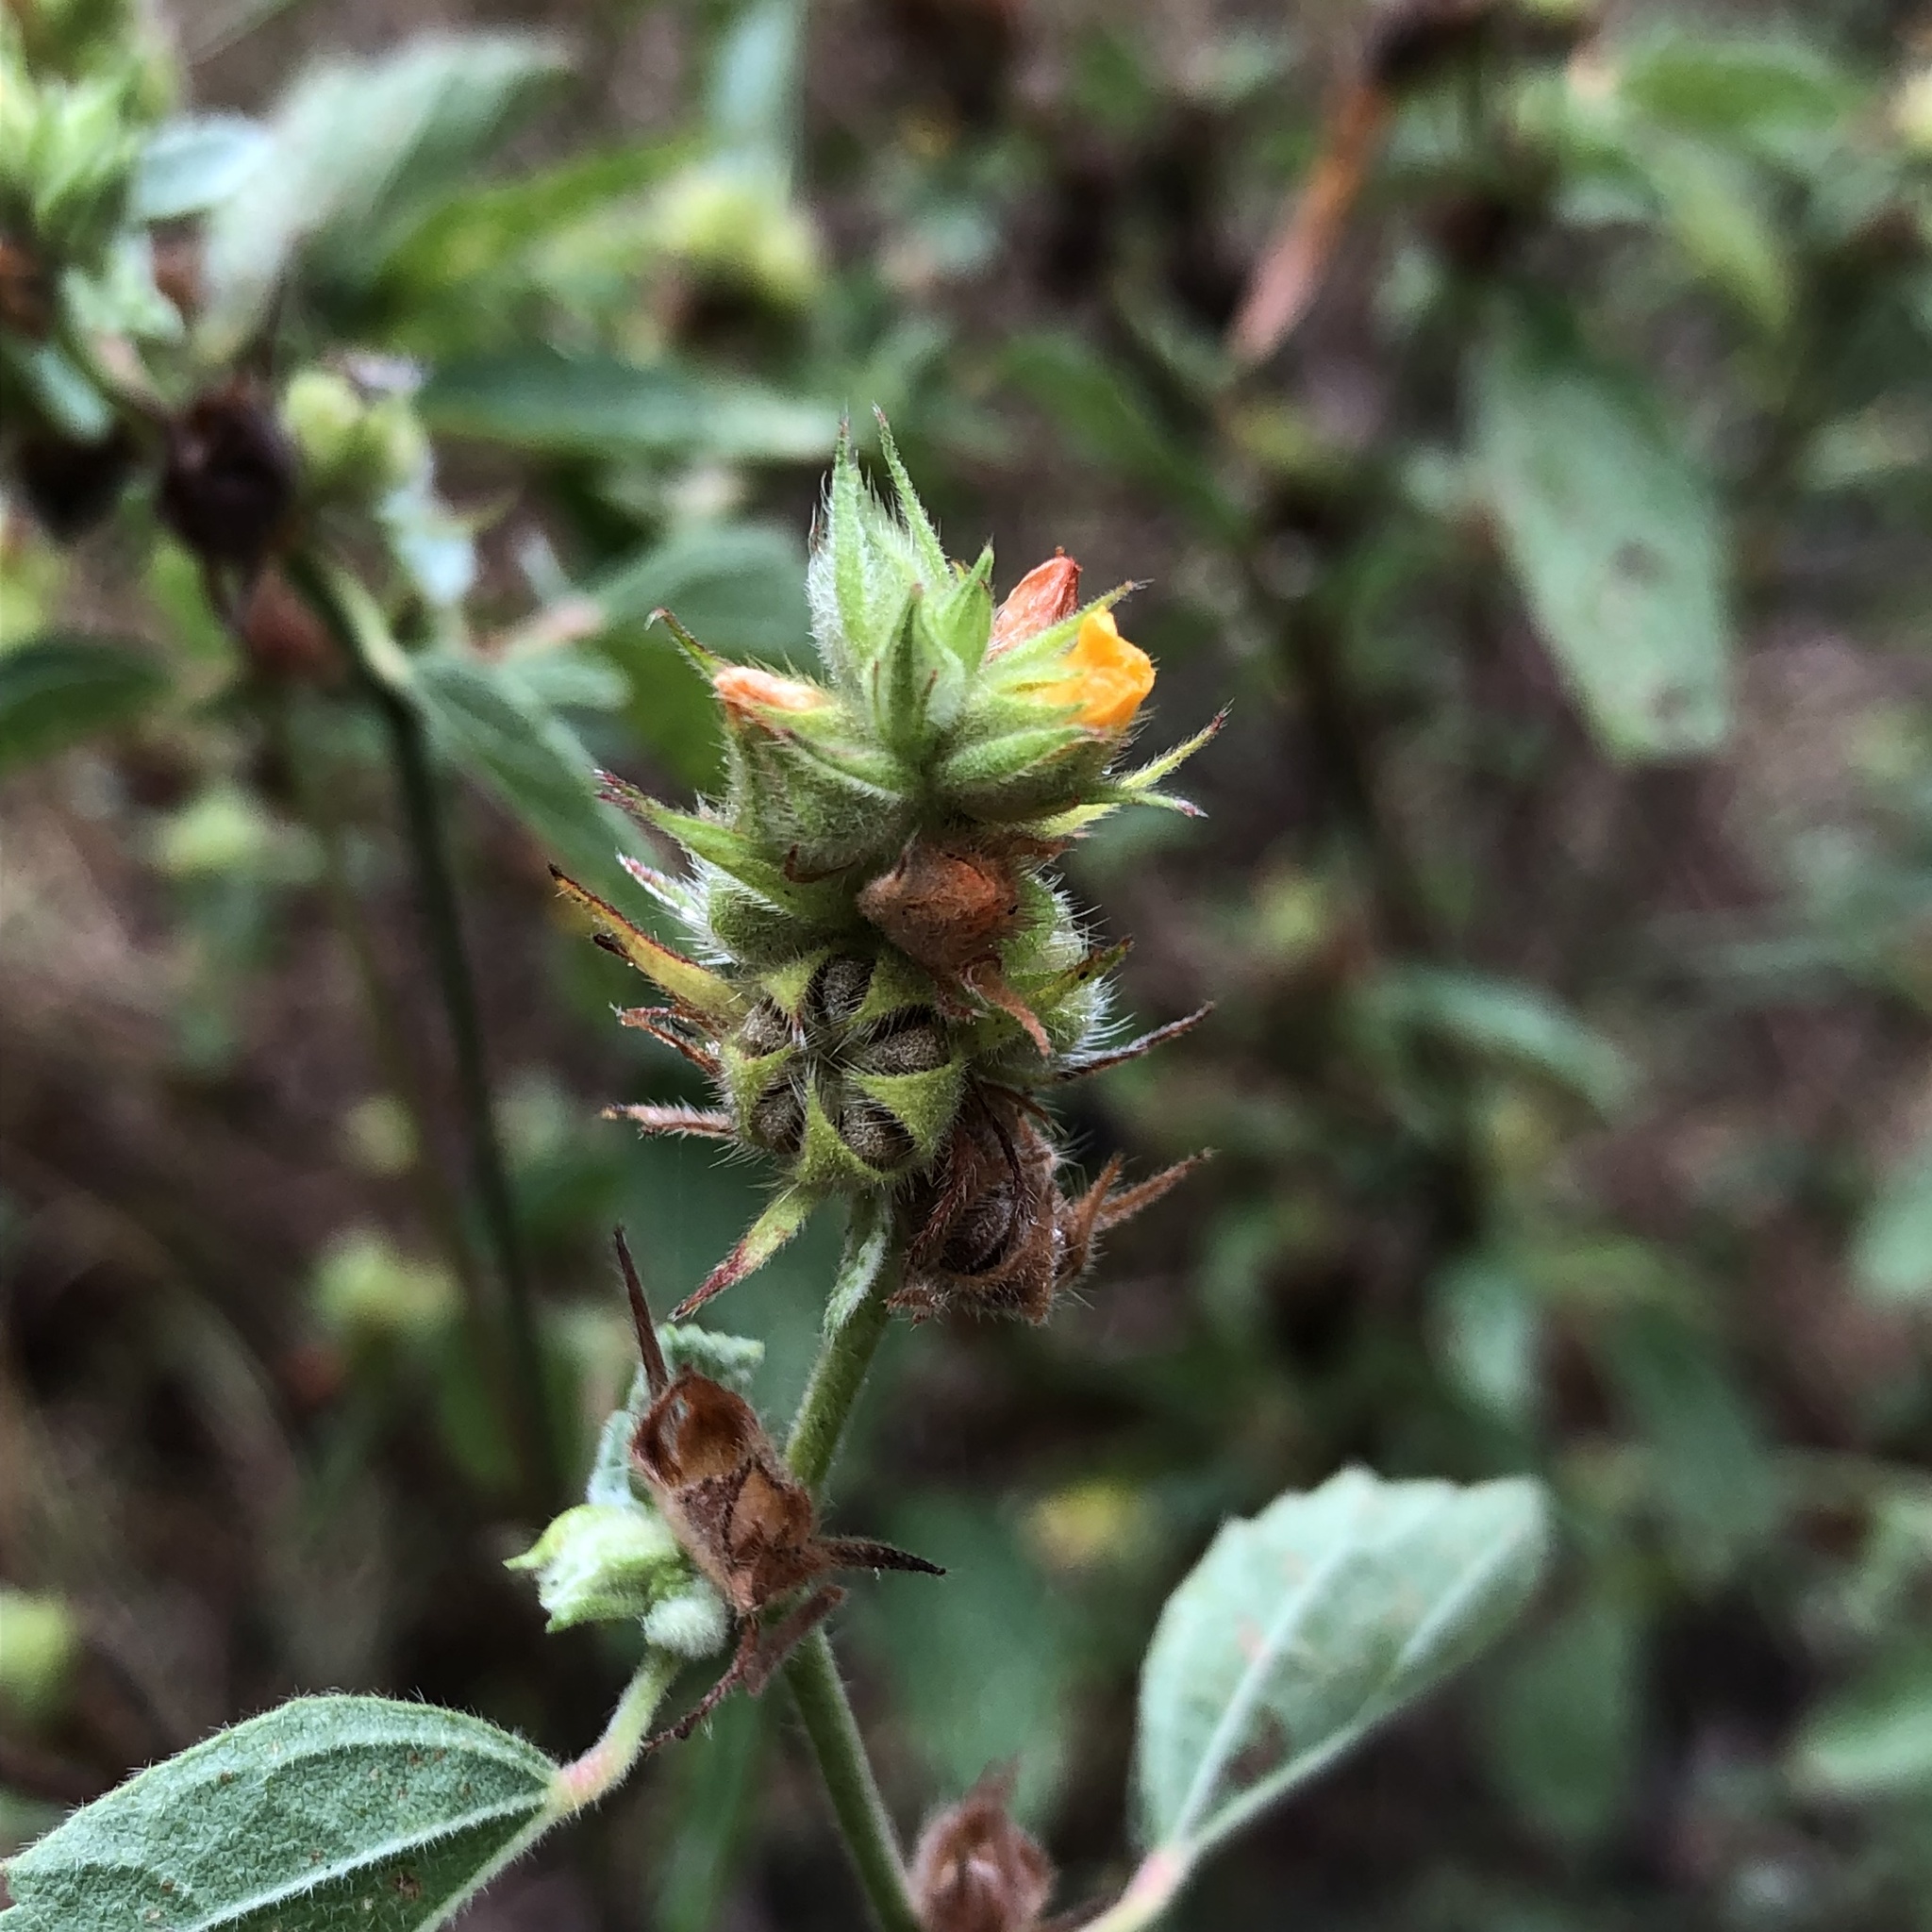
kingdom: Plantae
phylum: Tracheophyta
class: Magnoliopsida
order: Malvales
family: Malvaceae
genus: Malvastrum
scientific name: Malvastrum americanum
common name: Spiked malvastrum
